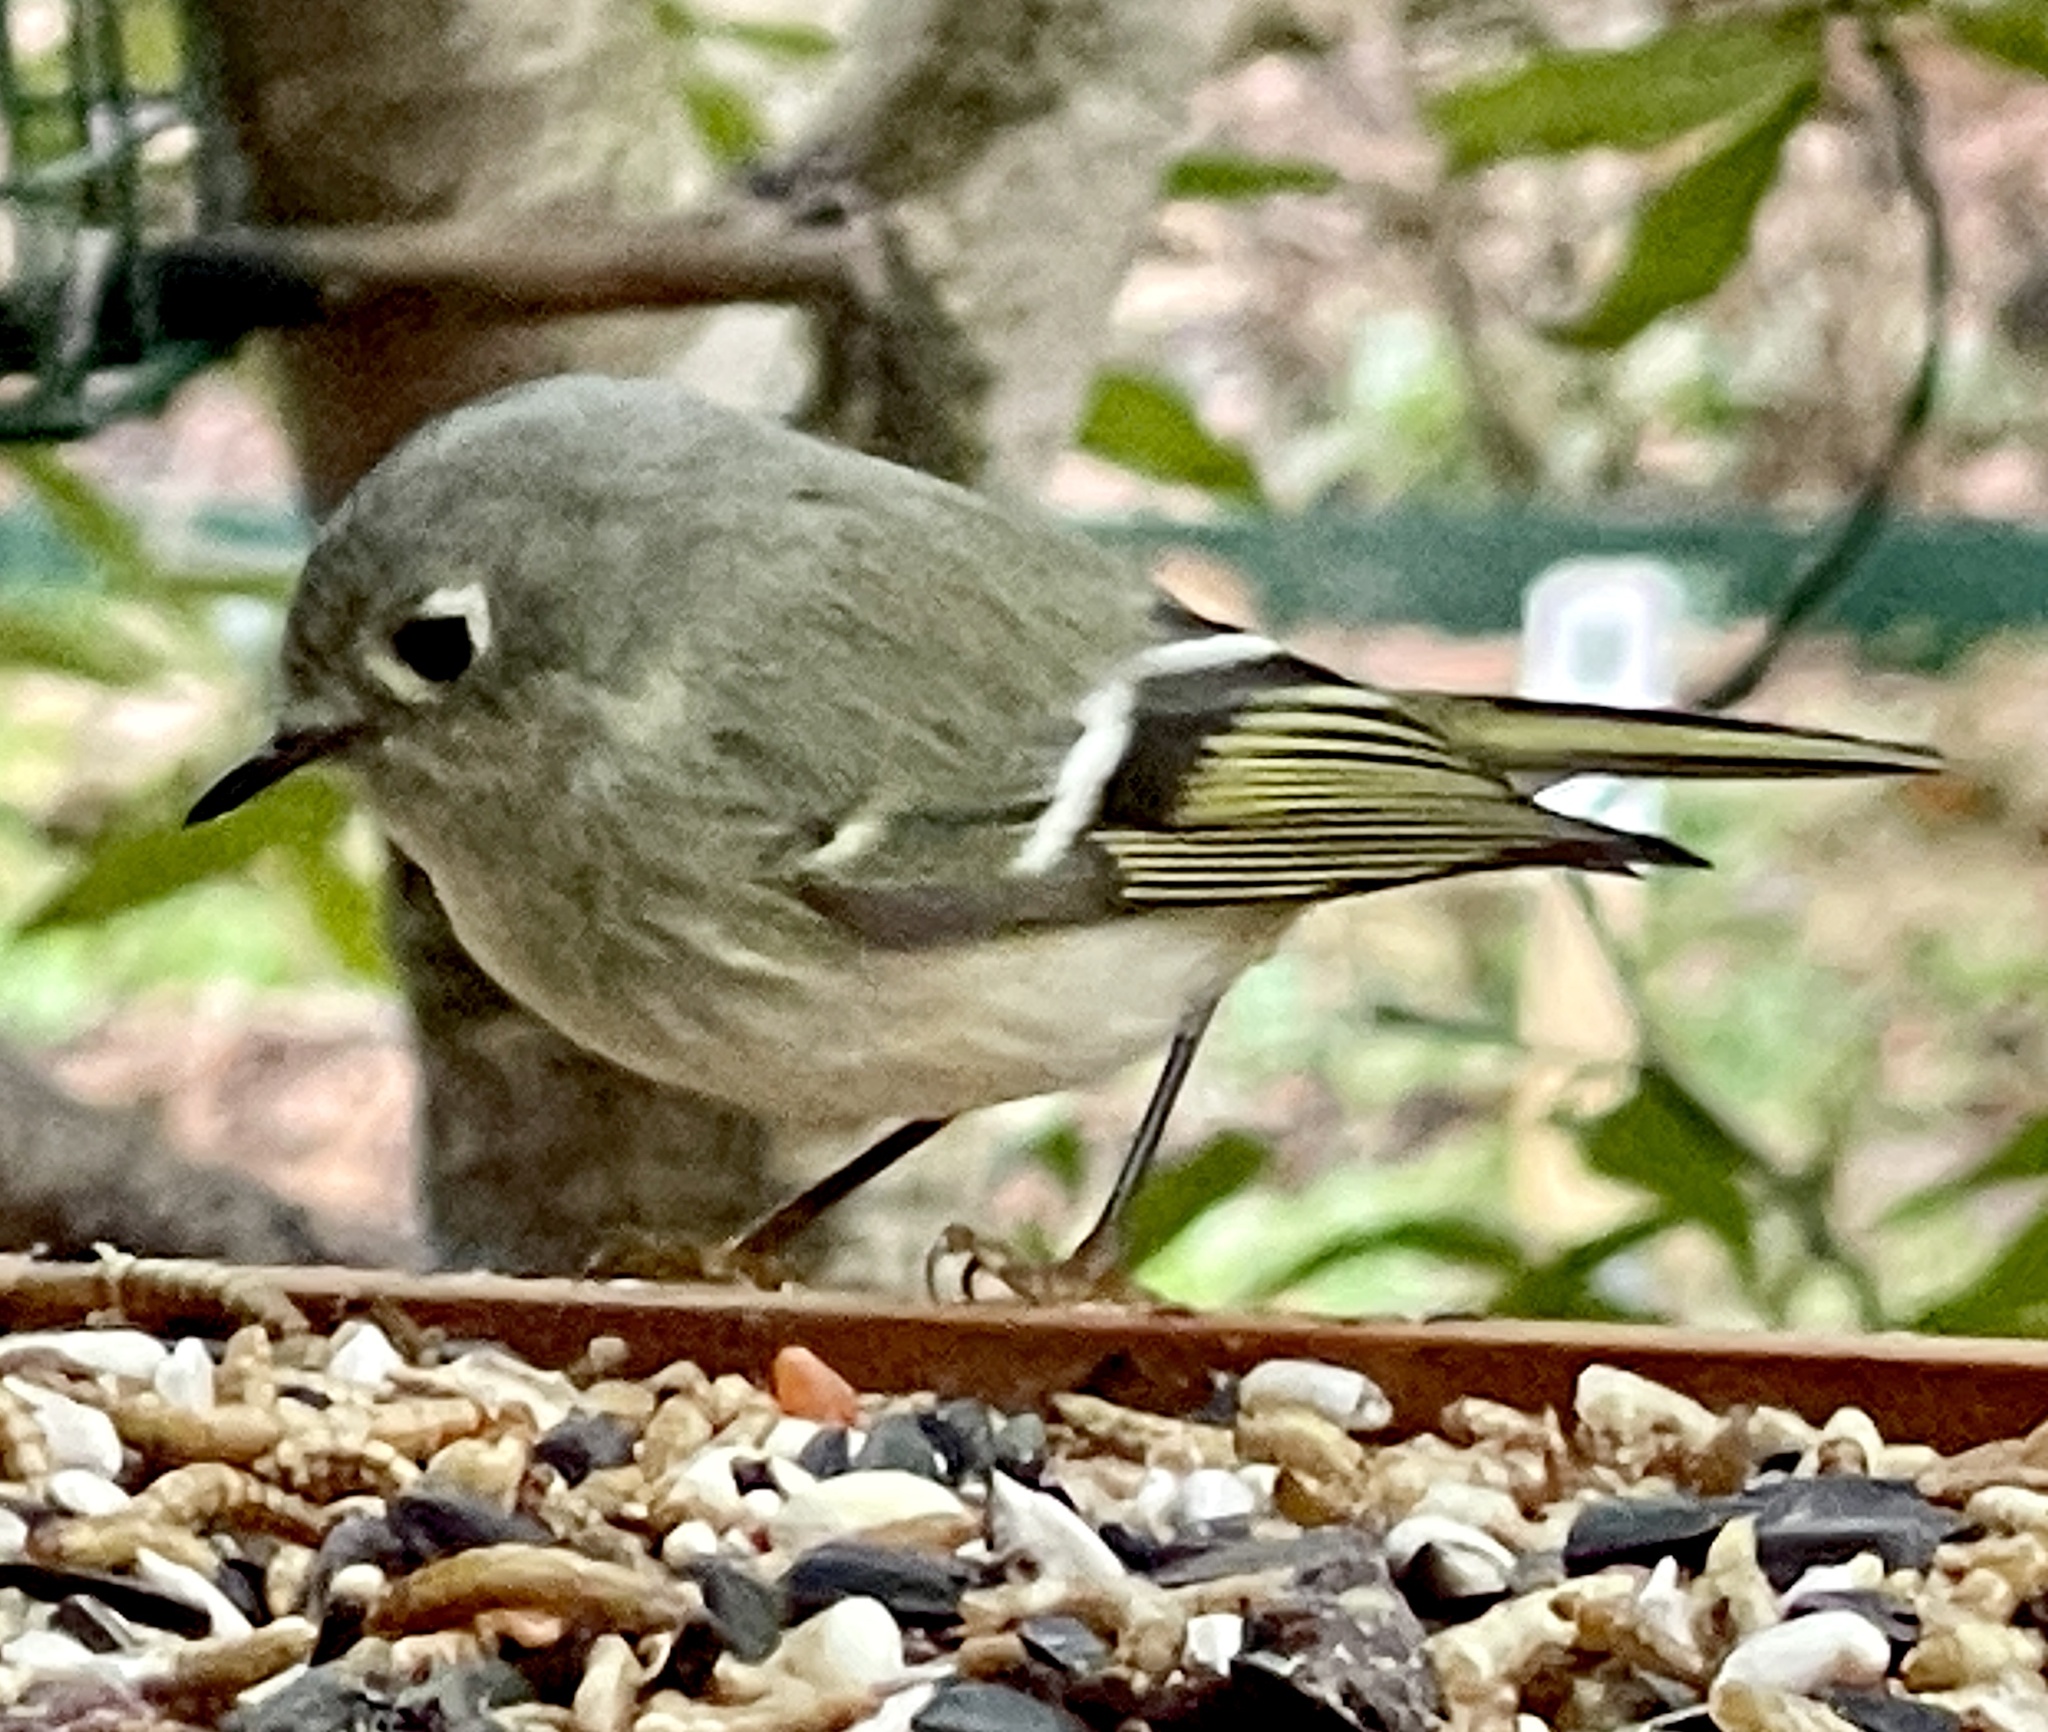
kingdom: Animalia
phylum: Chordata
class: Aves
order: Passeriformes
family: Regulidae
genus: Regulus
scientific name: Regulus calendula
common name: Ruby-crowned kinglet
